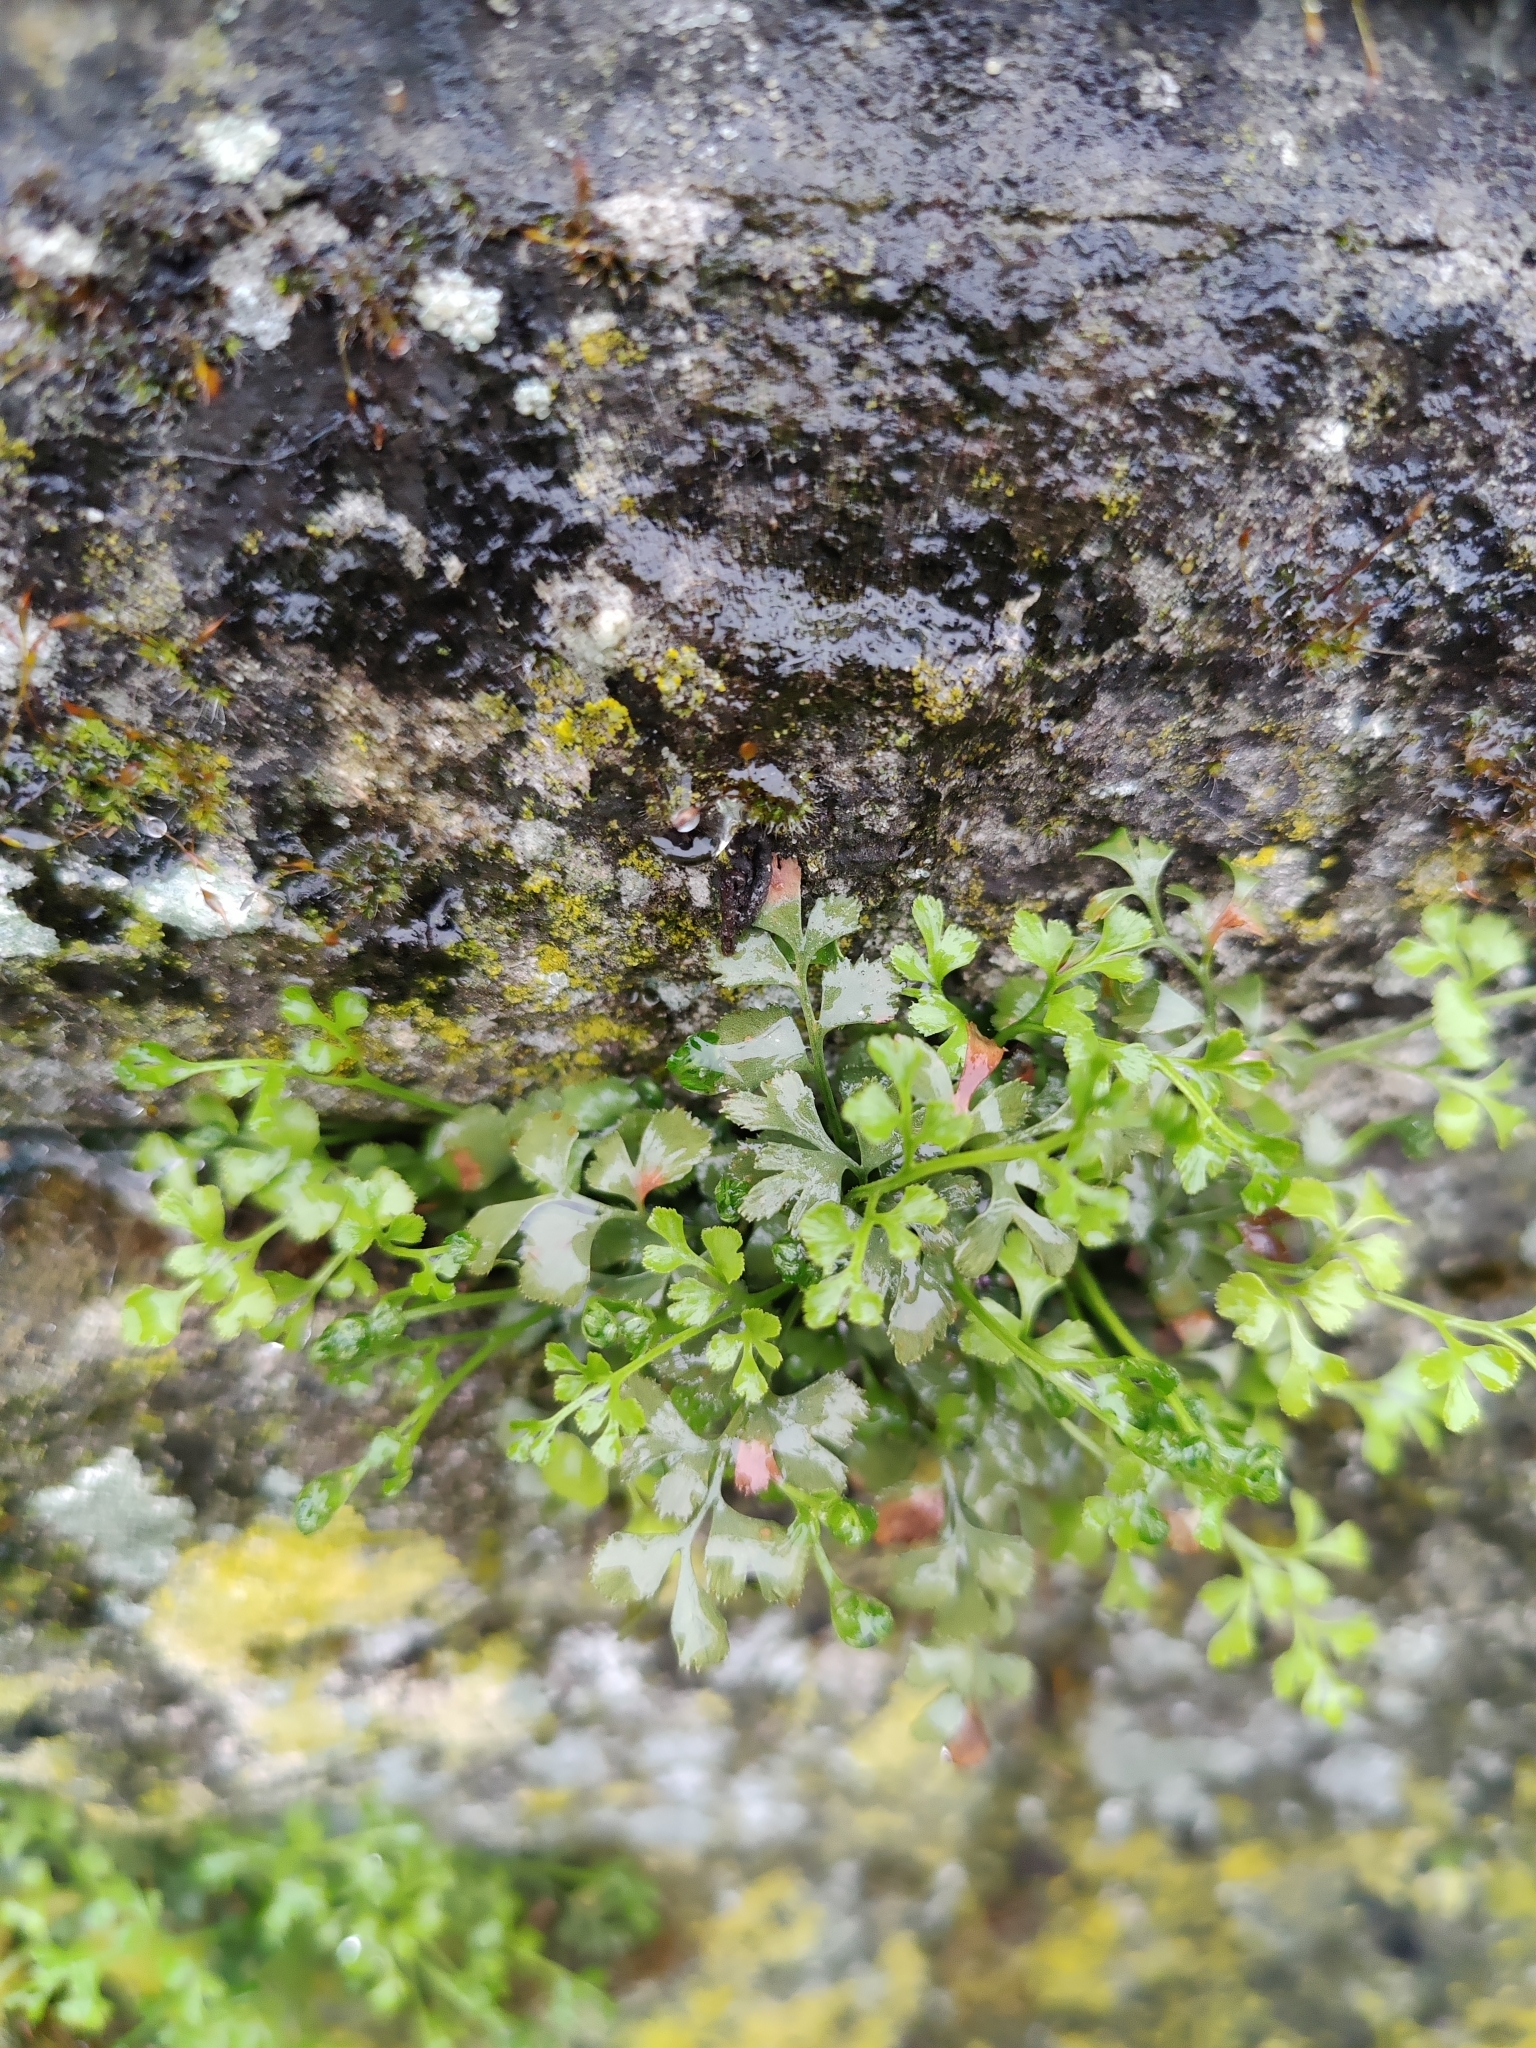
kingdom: Plantae
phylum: Tracheophyta
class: Polypodiopsida
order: Polypodiales
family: Aspleniaceae
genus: Asplenium
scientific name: Asplenium ruta-muraria
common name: Wall-rue
